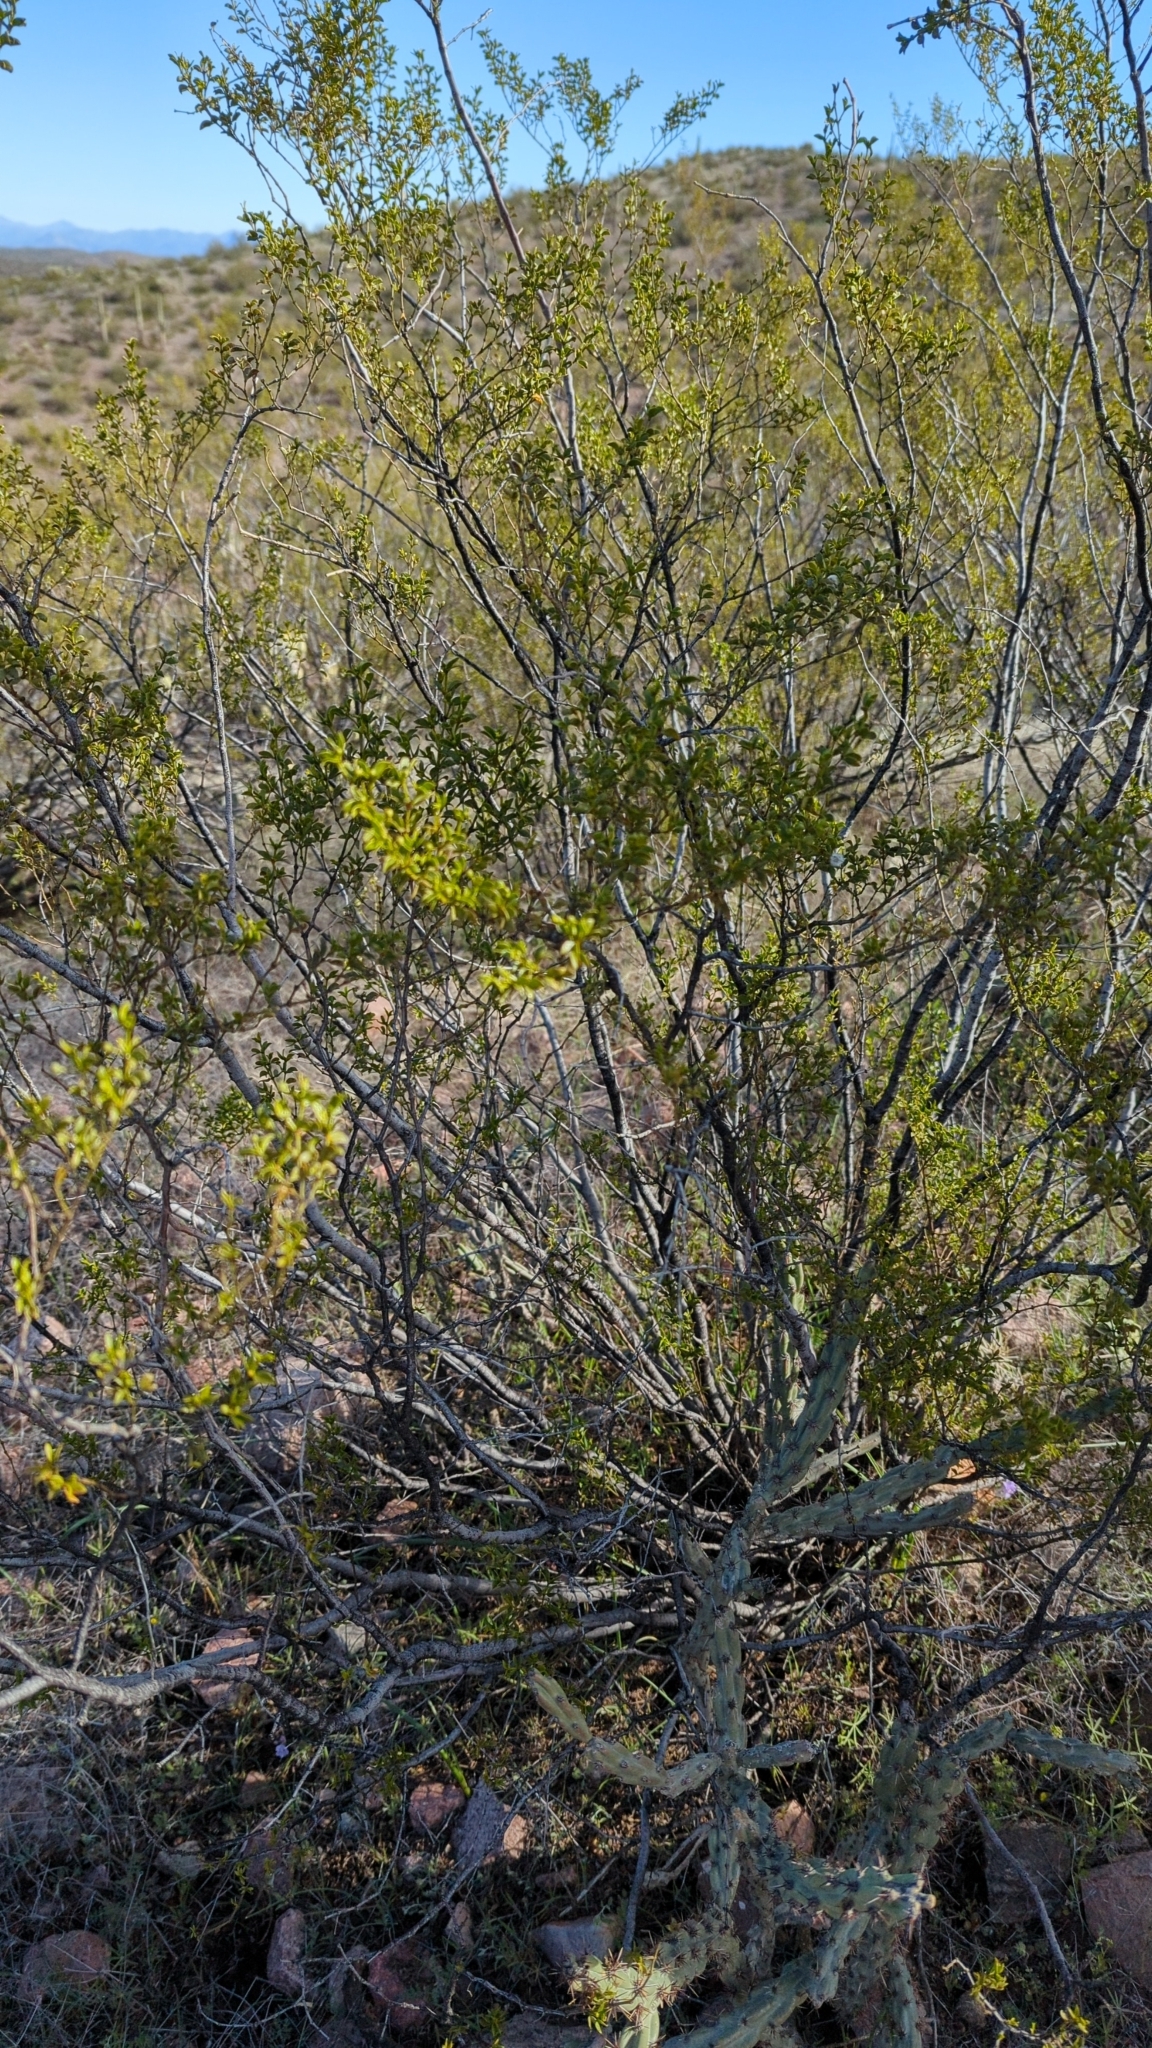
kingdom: Plantae
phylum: Tracheophyta
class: Magnoliopsida
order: Zygophyllales
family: Zygophyllaceae
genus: Larrea
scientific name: Larrea tridentata
